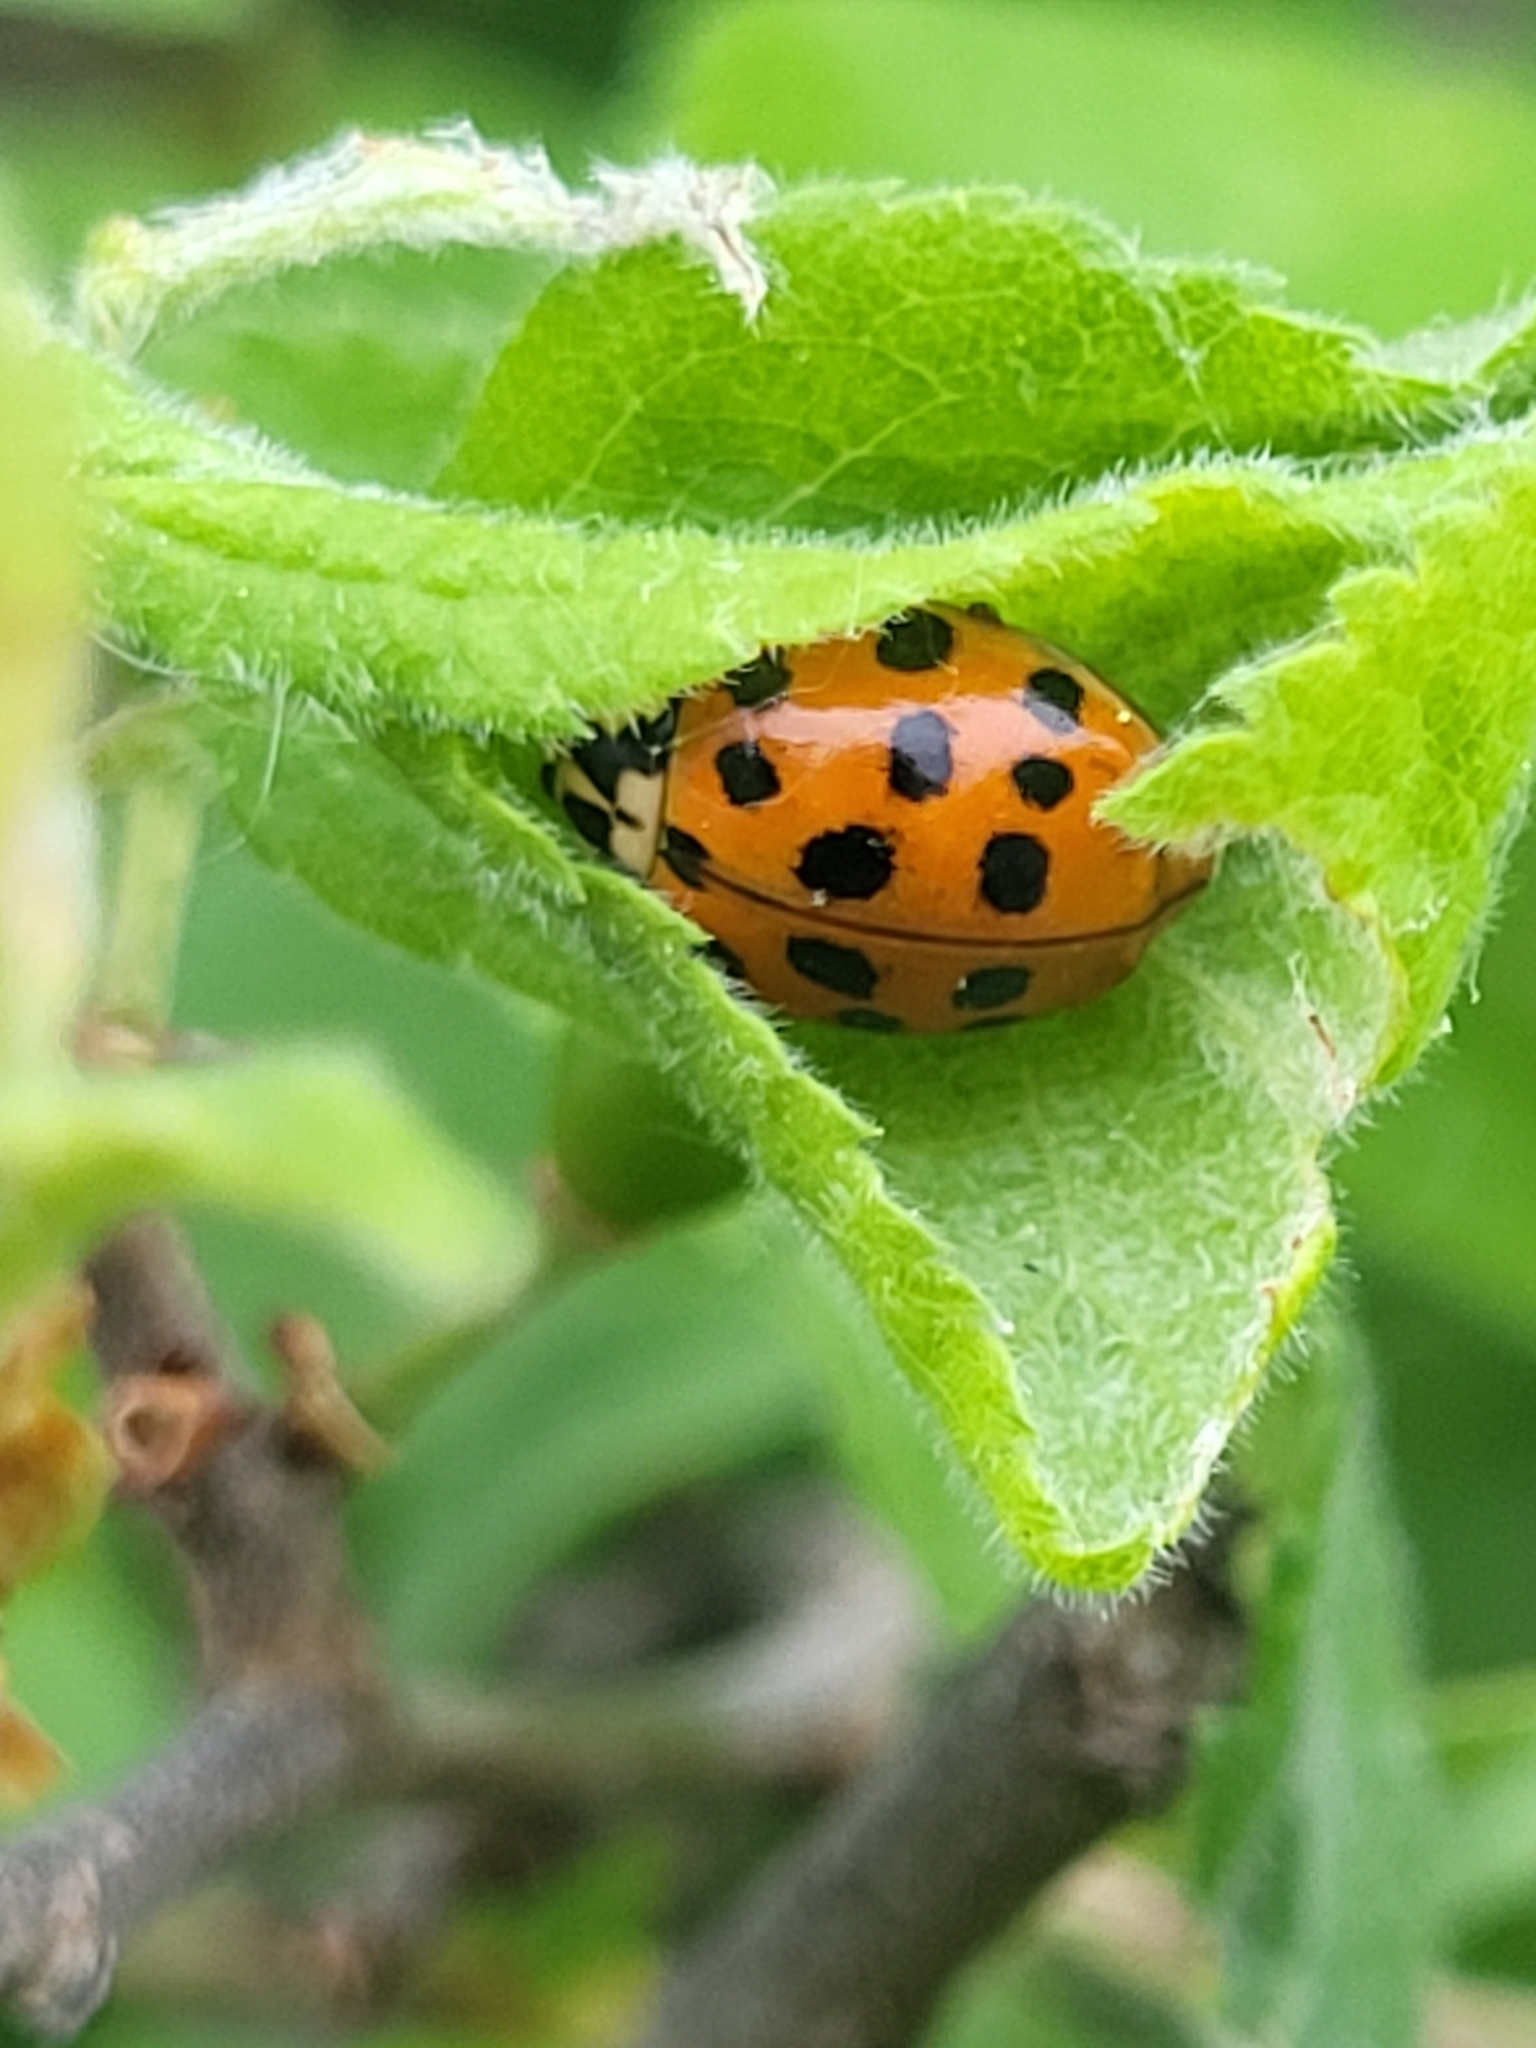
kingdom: Animalia
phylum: Arthropoda
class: Insecta
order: Coleoptera
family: Coccinellidae
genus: Harmonia
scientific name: Harmonia axyridis
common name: Harlequin ladybird
